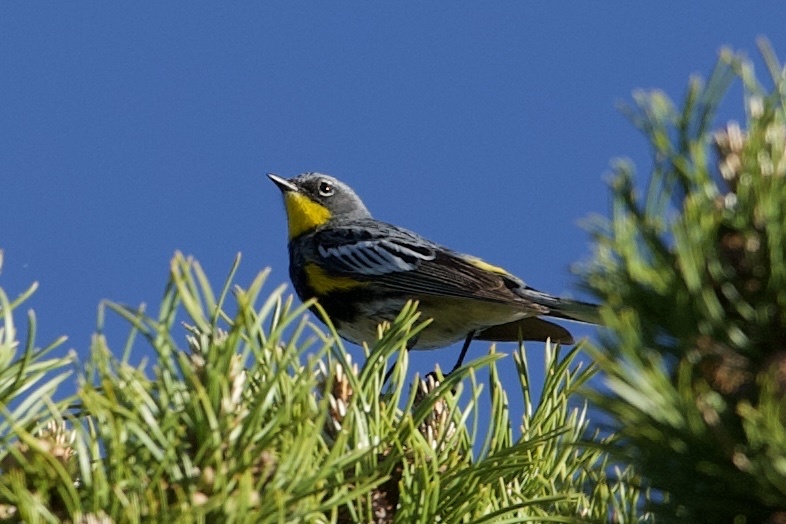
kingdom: Animalia
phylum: Chordata
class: Aves
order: Passeriformes
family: Parulidae
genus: Setophaga
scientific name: Setophaga coronata
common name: Myrtle warbler
